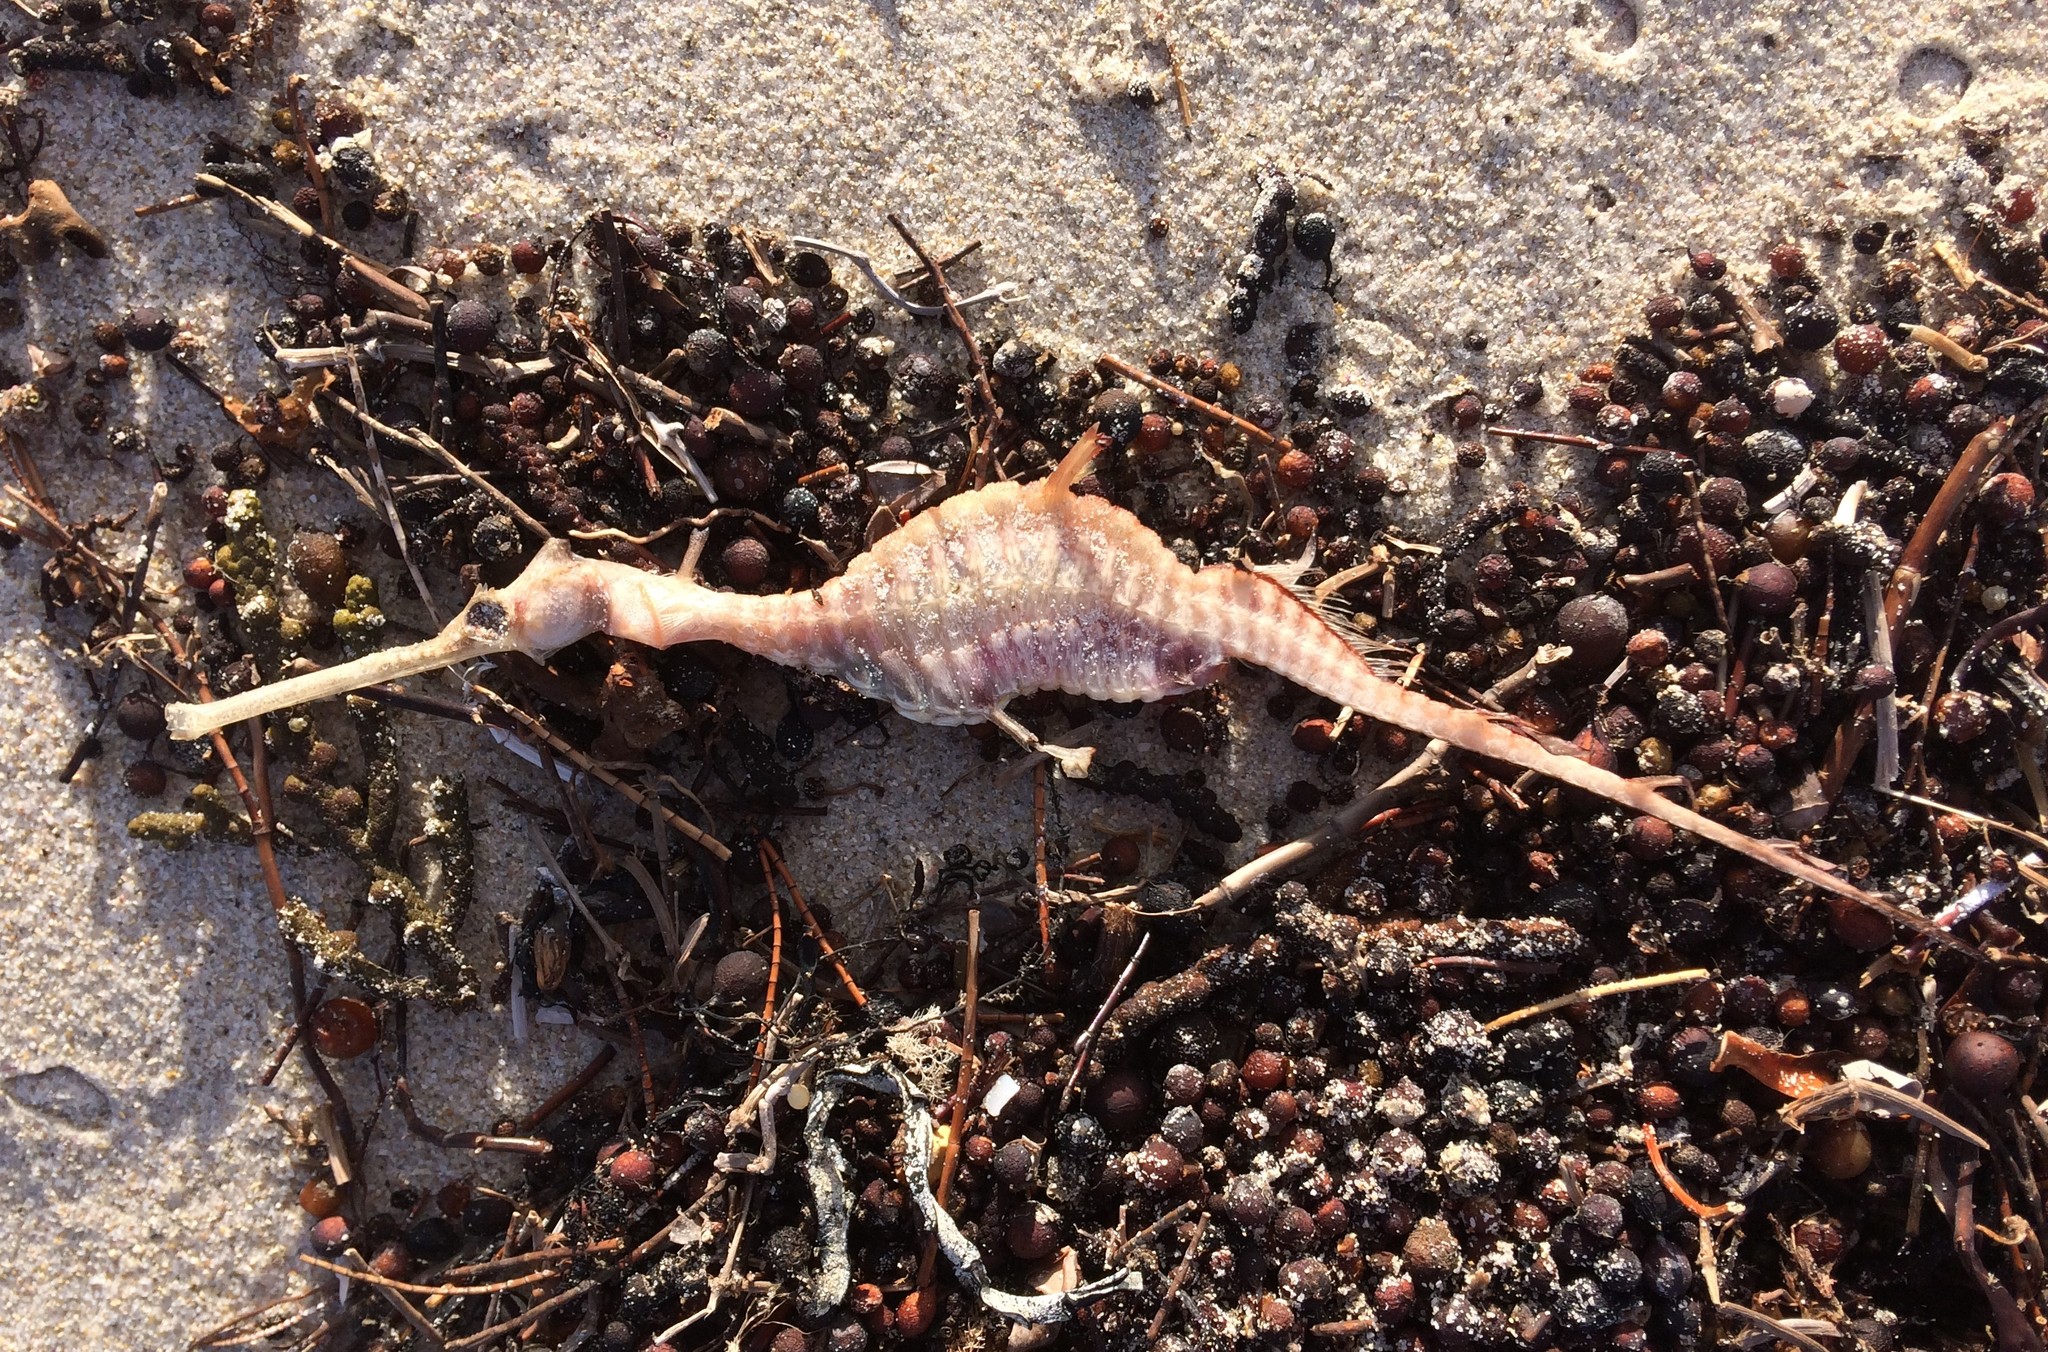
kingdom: Animalia
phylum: Chordata
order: Syngnathiformes
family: Syngnathidae
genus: Phyllopteryx
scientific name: Phyllopteryx taeniolatus
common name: Common seadragon
